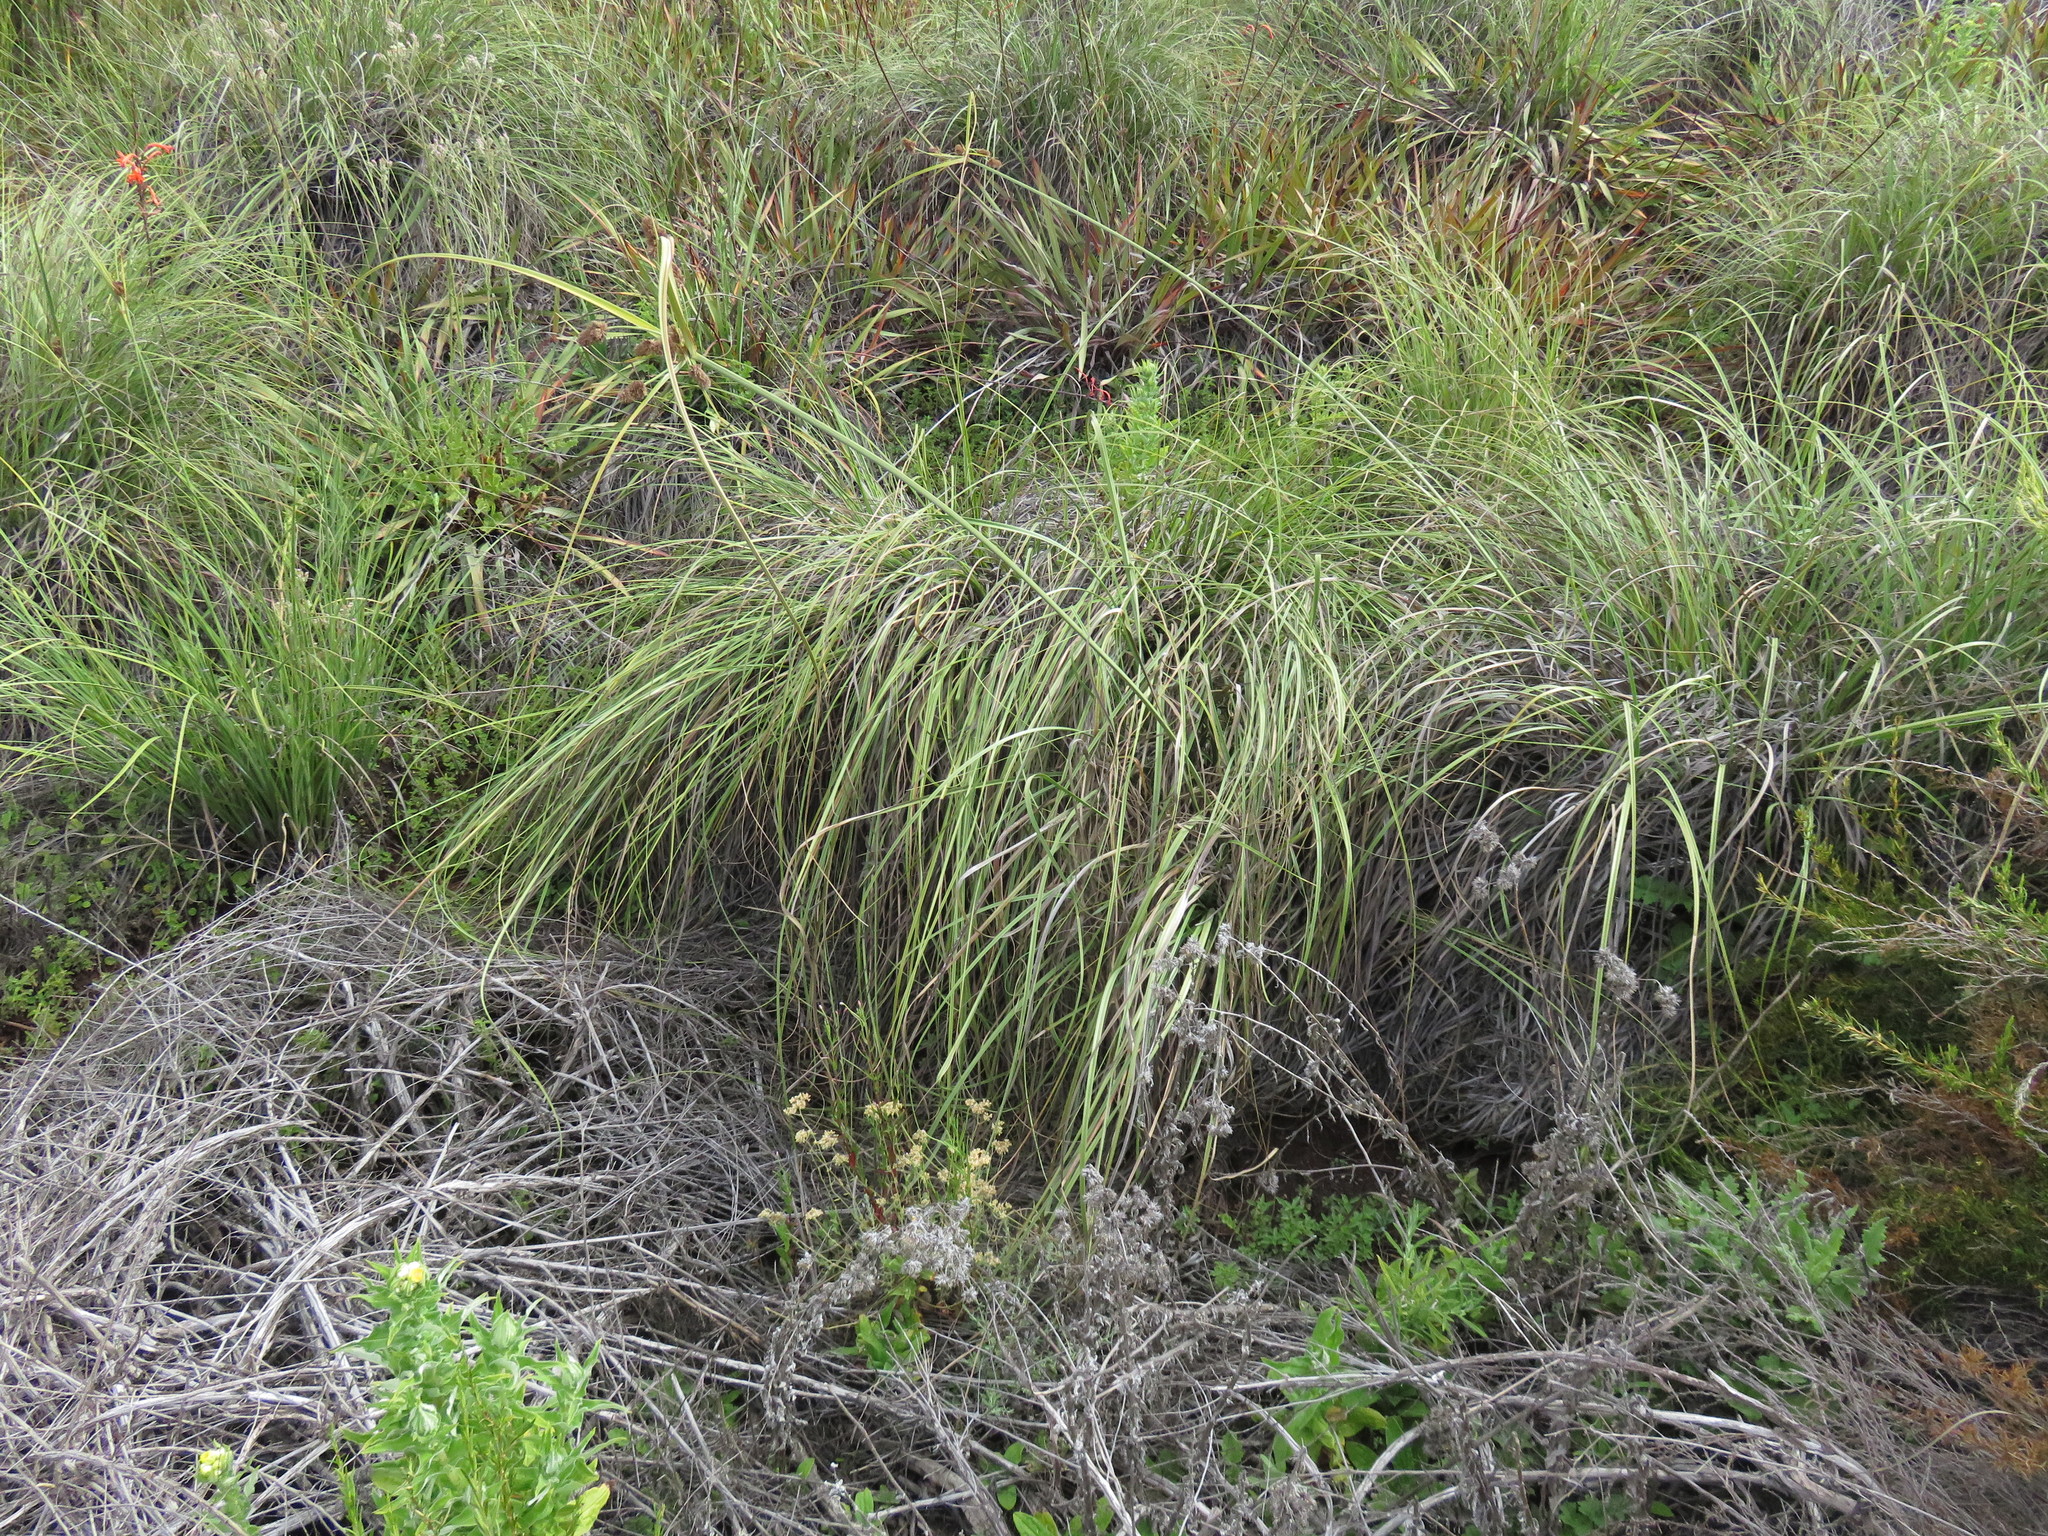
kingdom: Plantae
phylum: Tracheophyta
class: Liliopsida
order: Poales
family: Cyperaceae
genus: Cyperus
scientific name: Cyperus thunbergii
